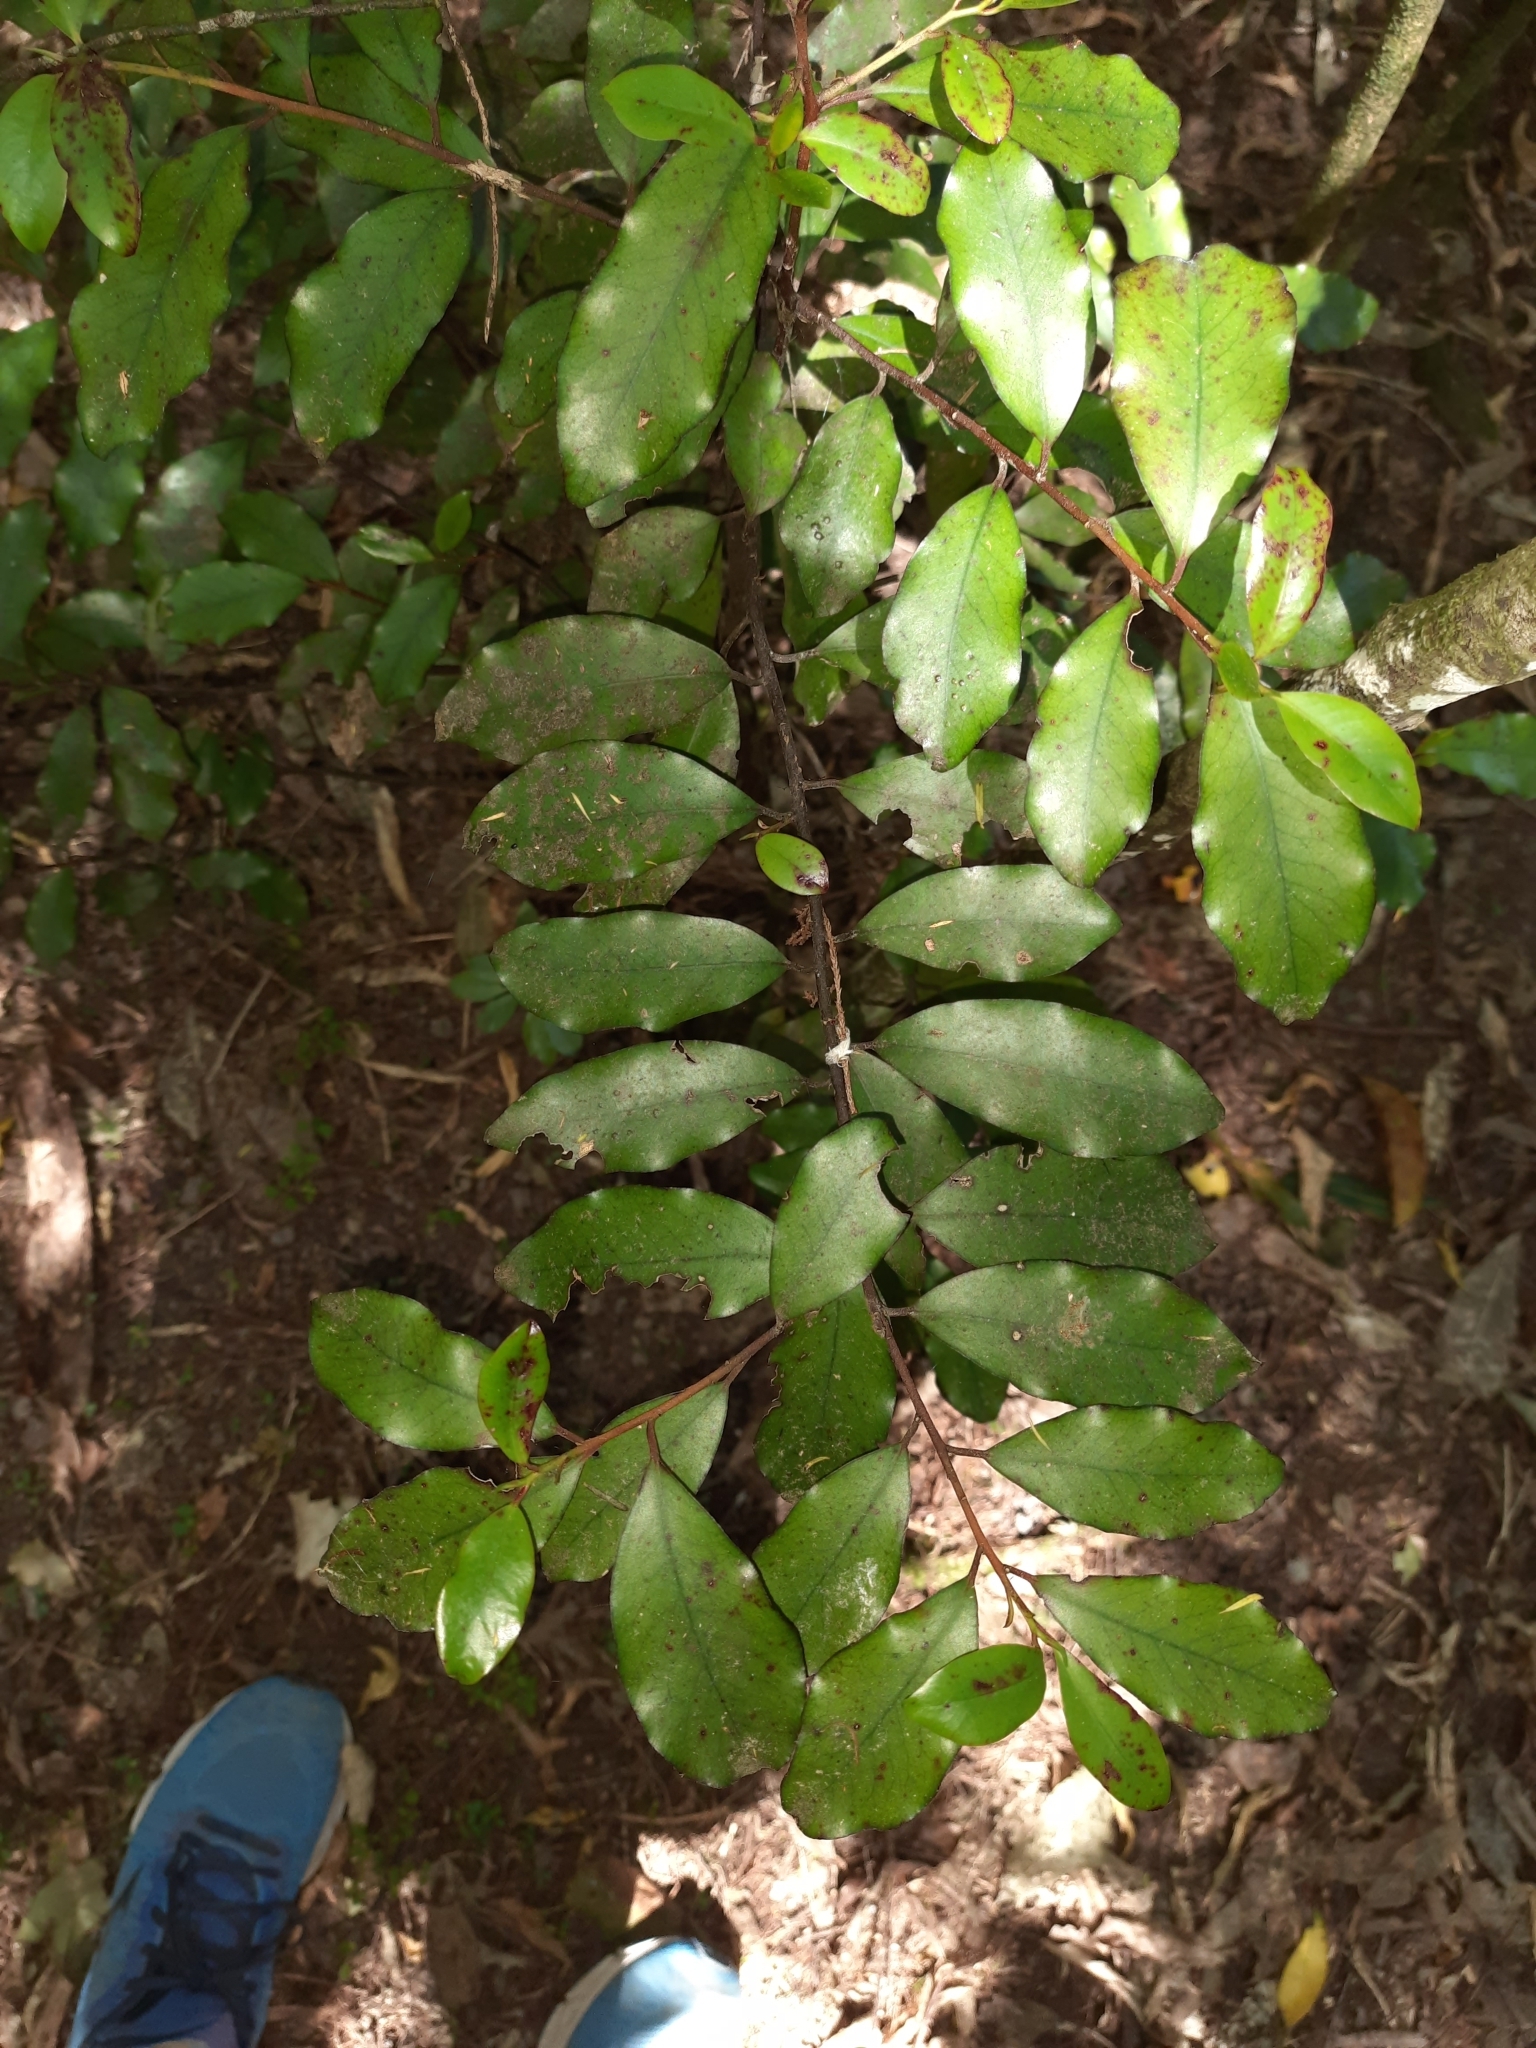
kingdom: Plantae
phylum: Tracheophyta
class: Magnoliopsida
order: Rosales
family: Elaeagnaceae
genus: Elaeagnus
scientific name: Elaeagnus reflexa
